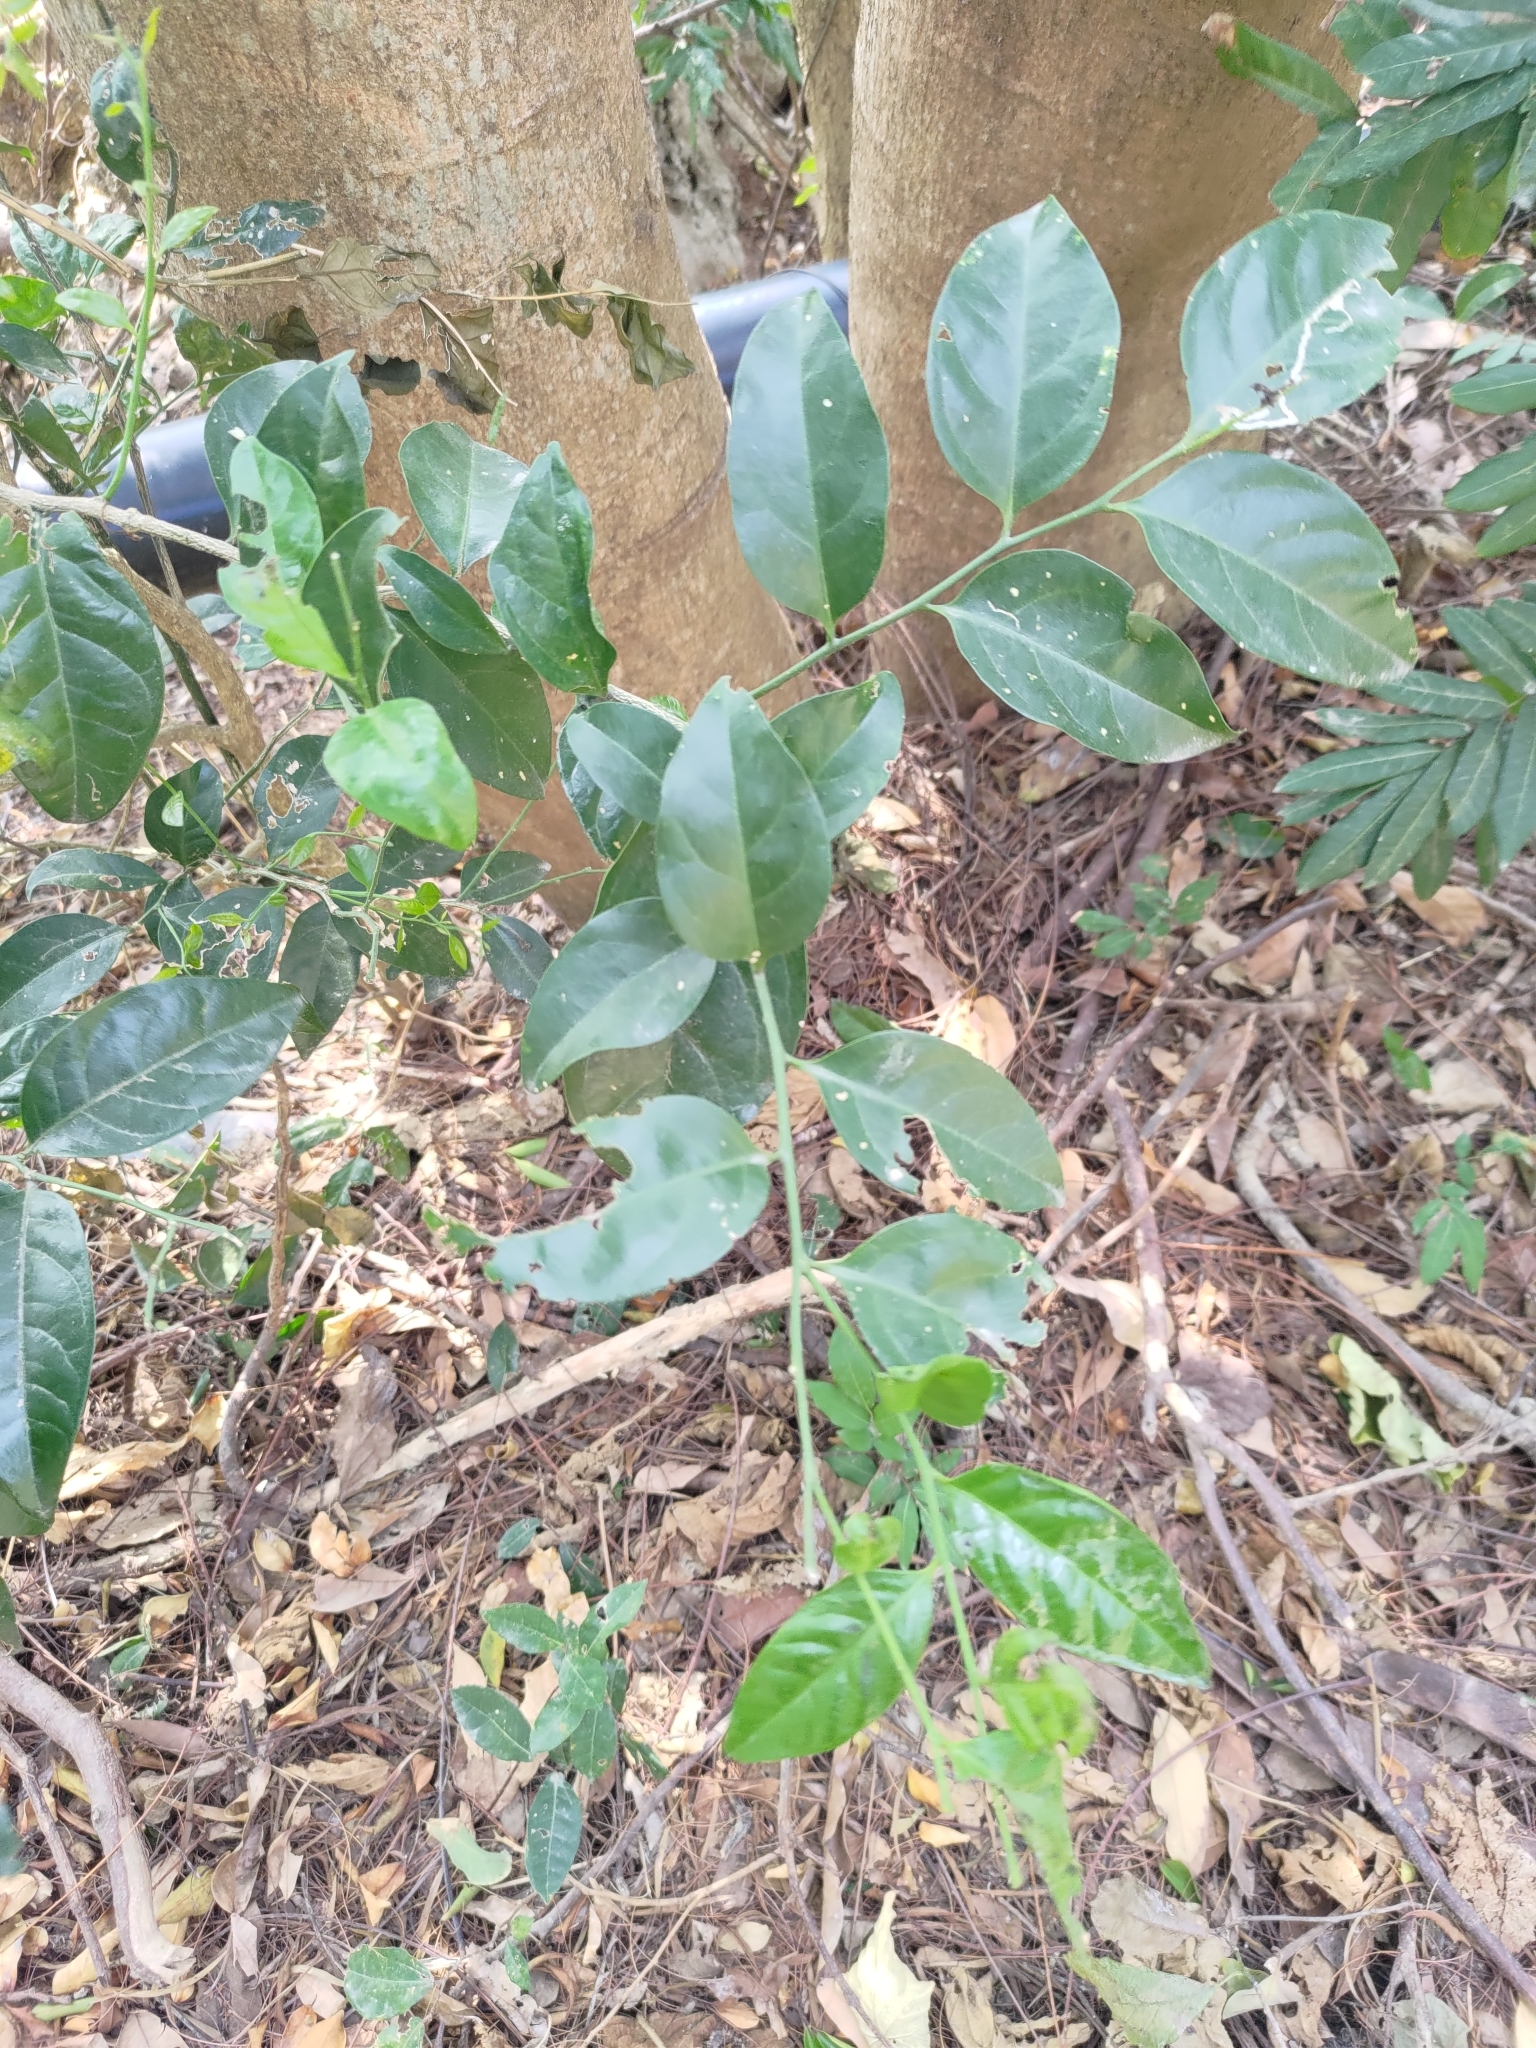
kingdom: Plantae
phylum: Tracheophyta
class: Magnoliopsida
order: Santalales
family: Opiliaceae
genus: Champereia
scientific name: Champereia manillana
